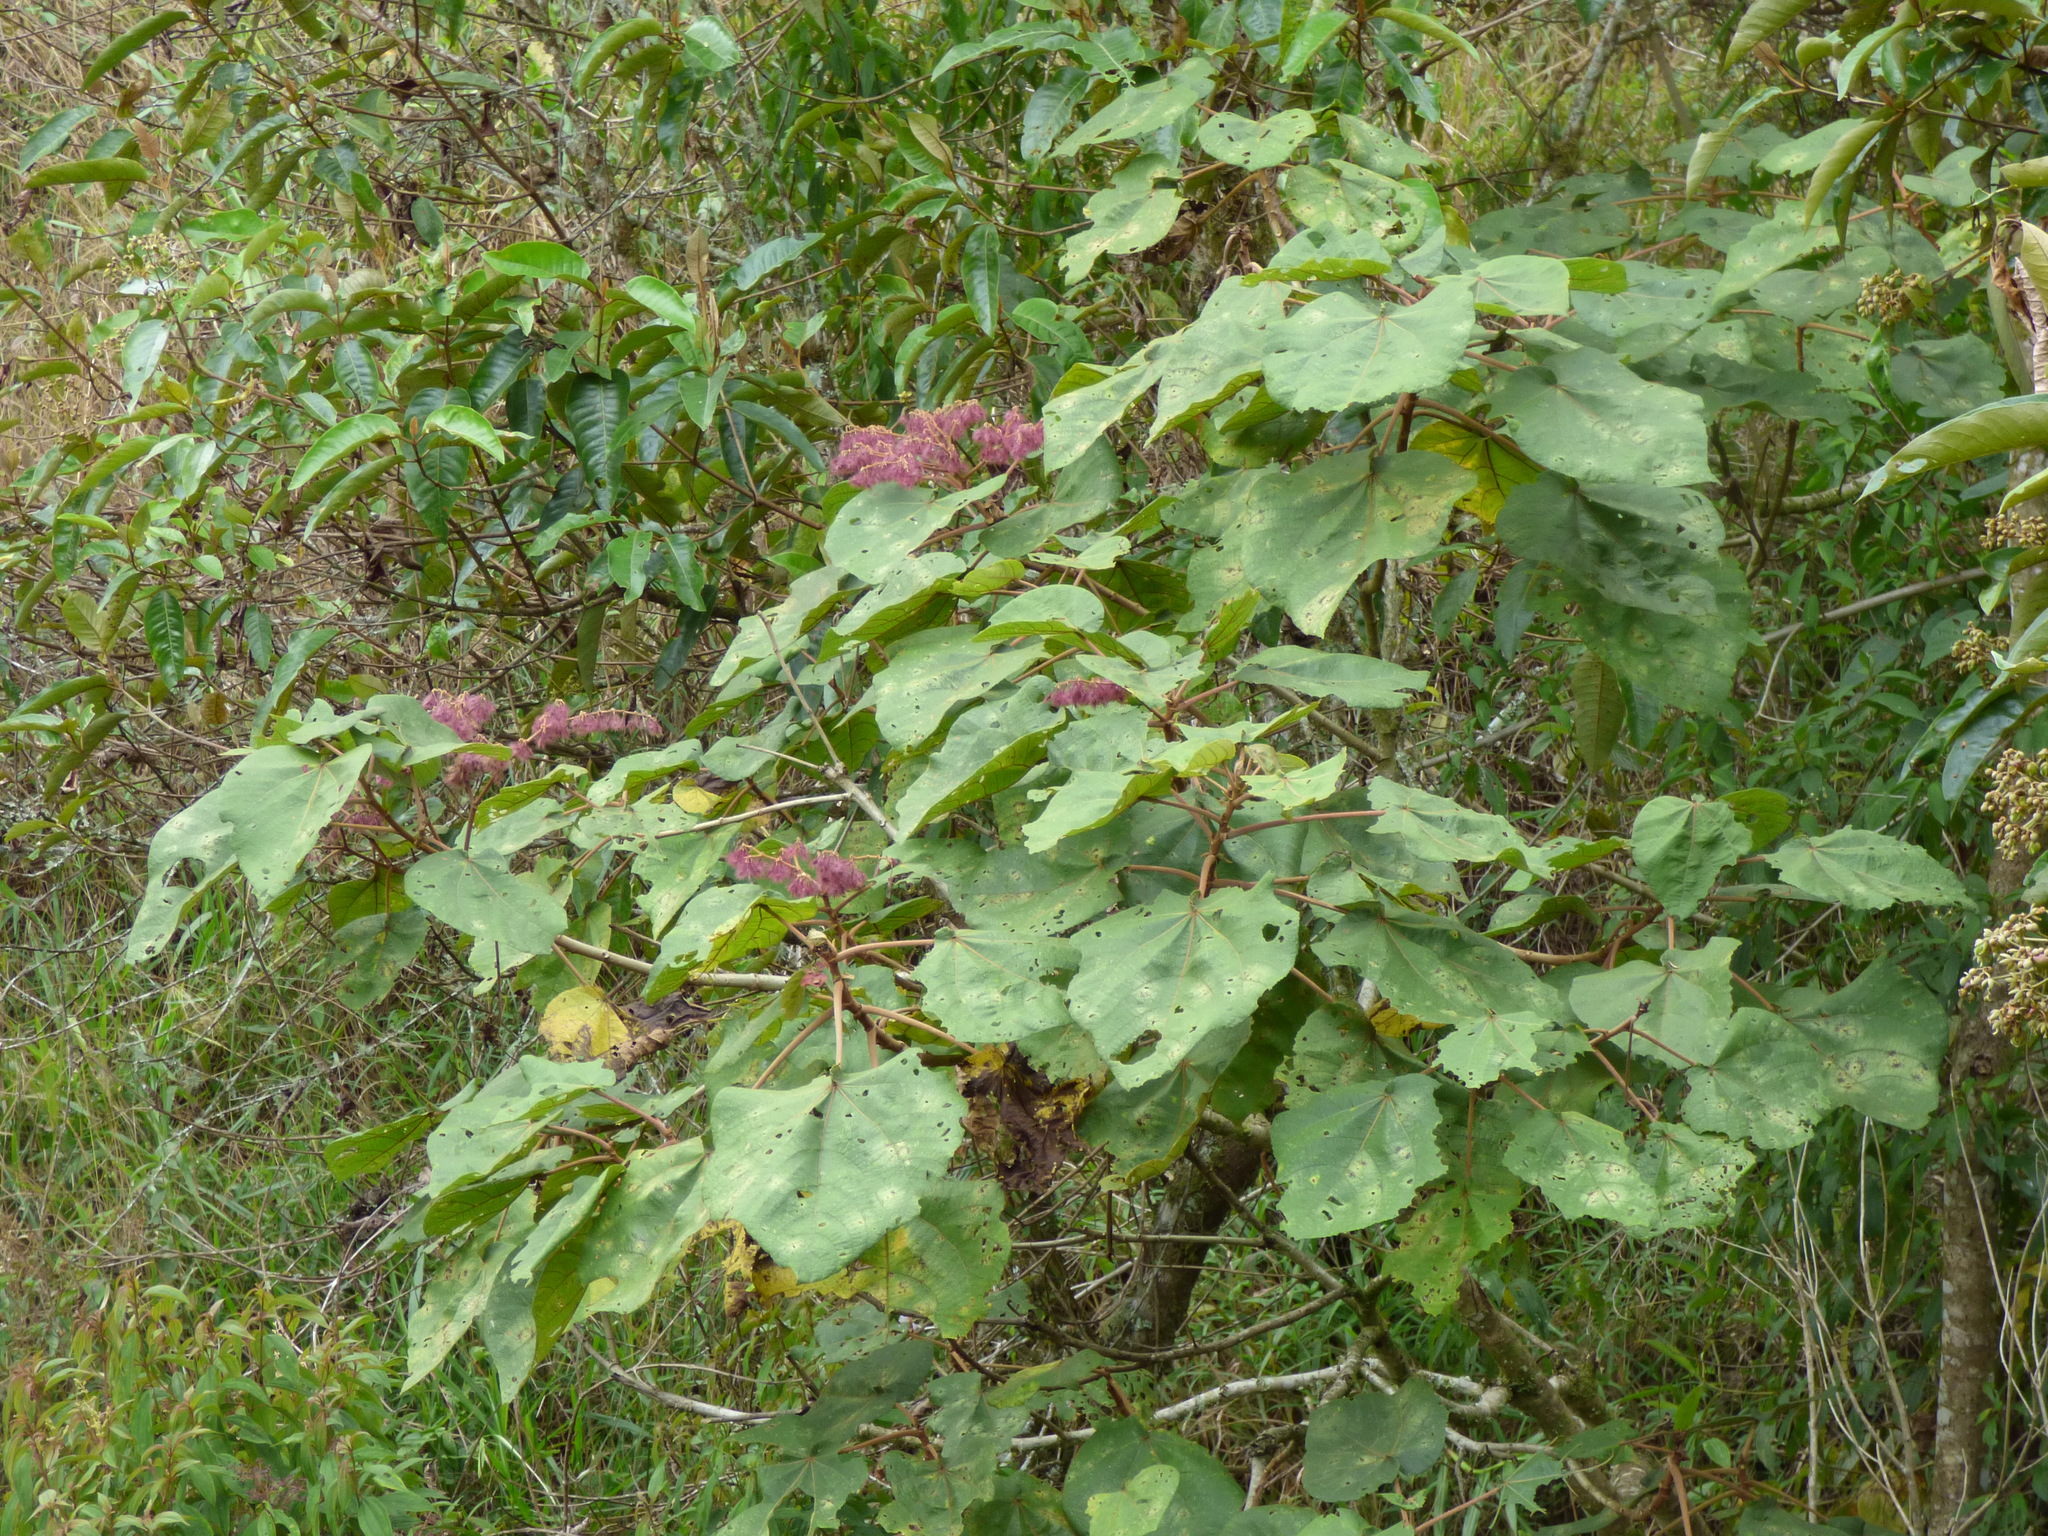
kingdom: Plantae
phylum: Tracheophyta
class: Magnoliopsida
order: Malvales
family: Malvaceae
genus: Heliocarpus
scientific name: Heliocarpus americanus
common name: White moho
